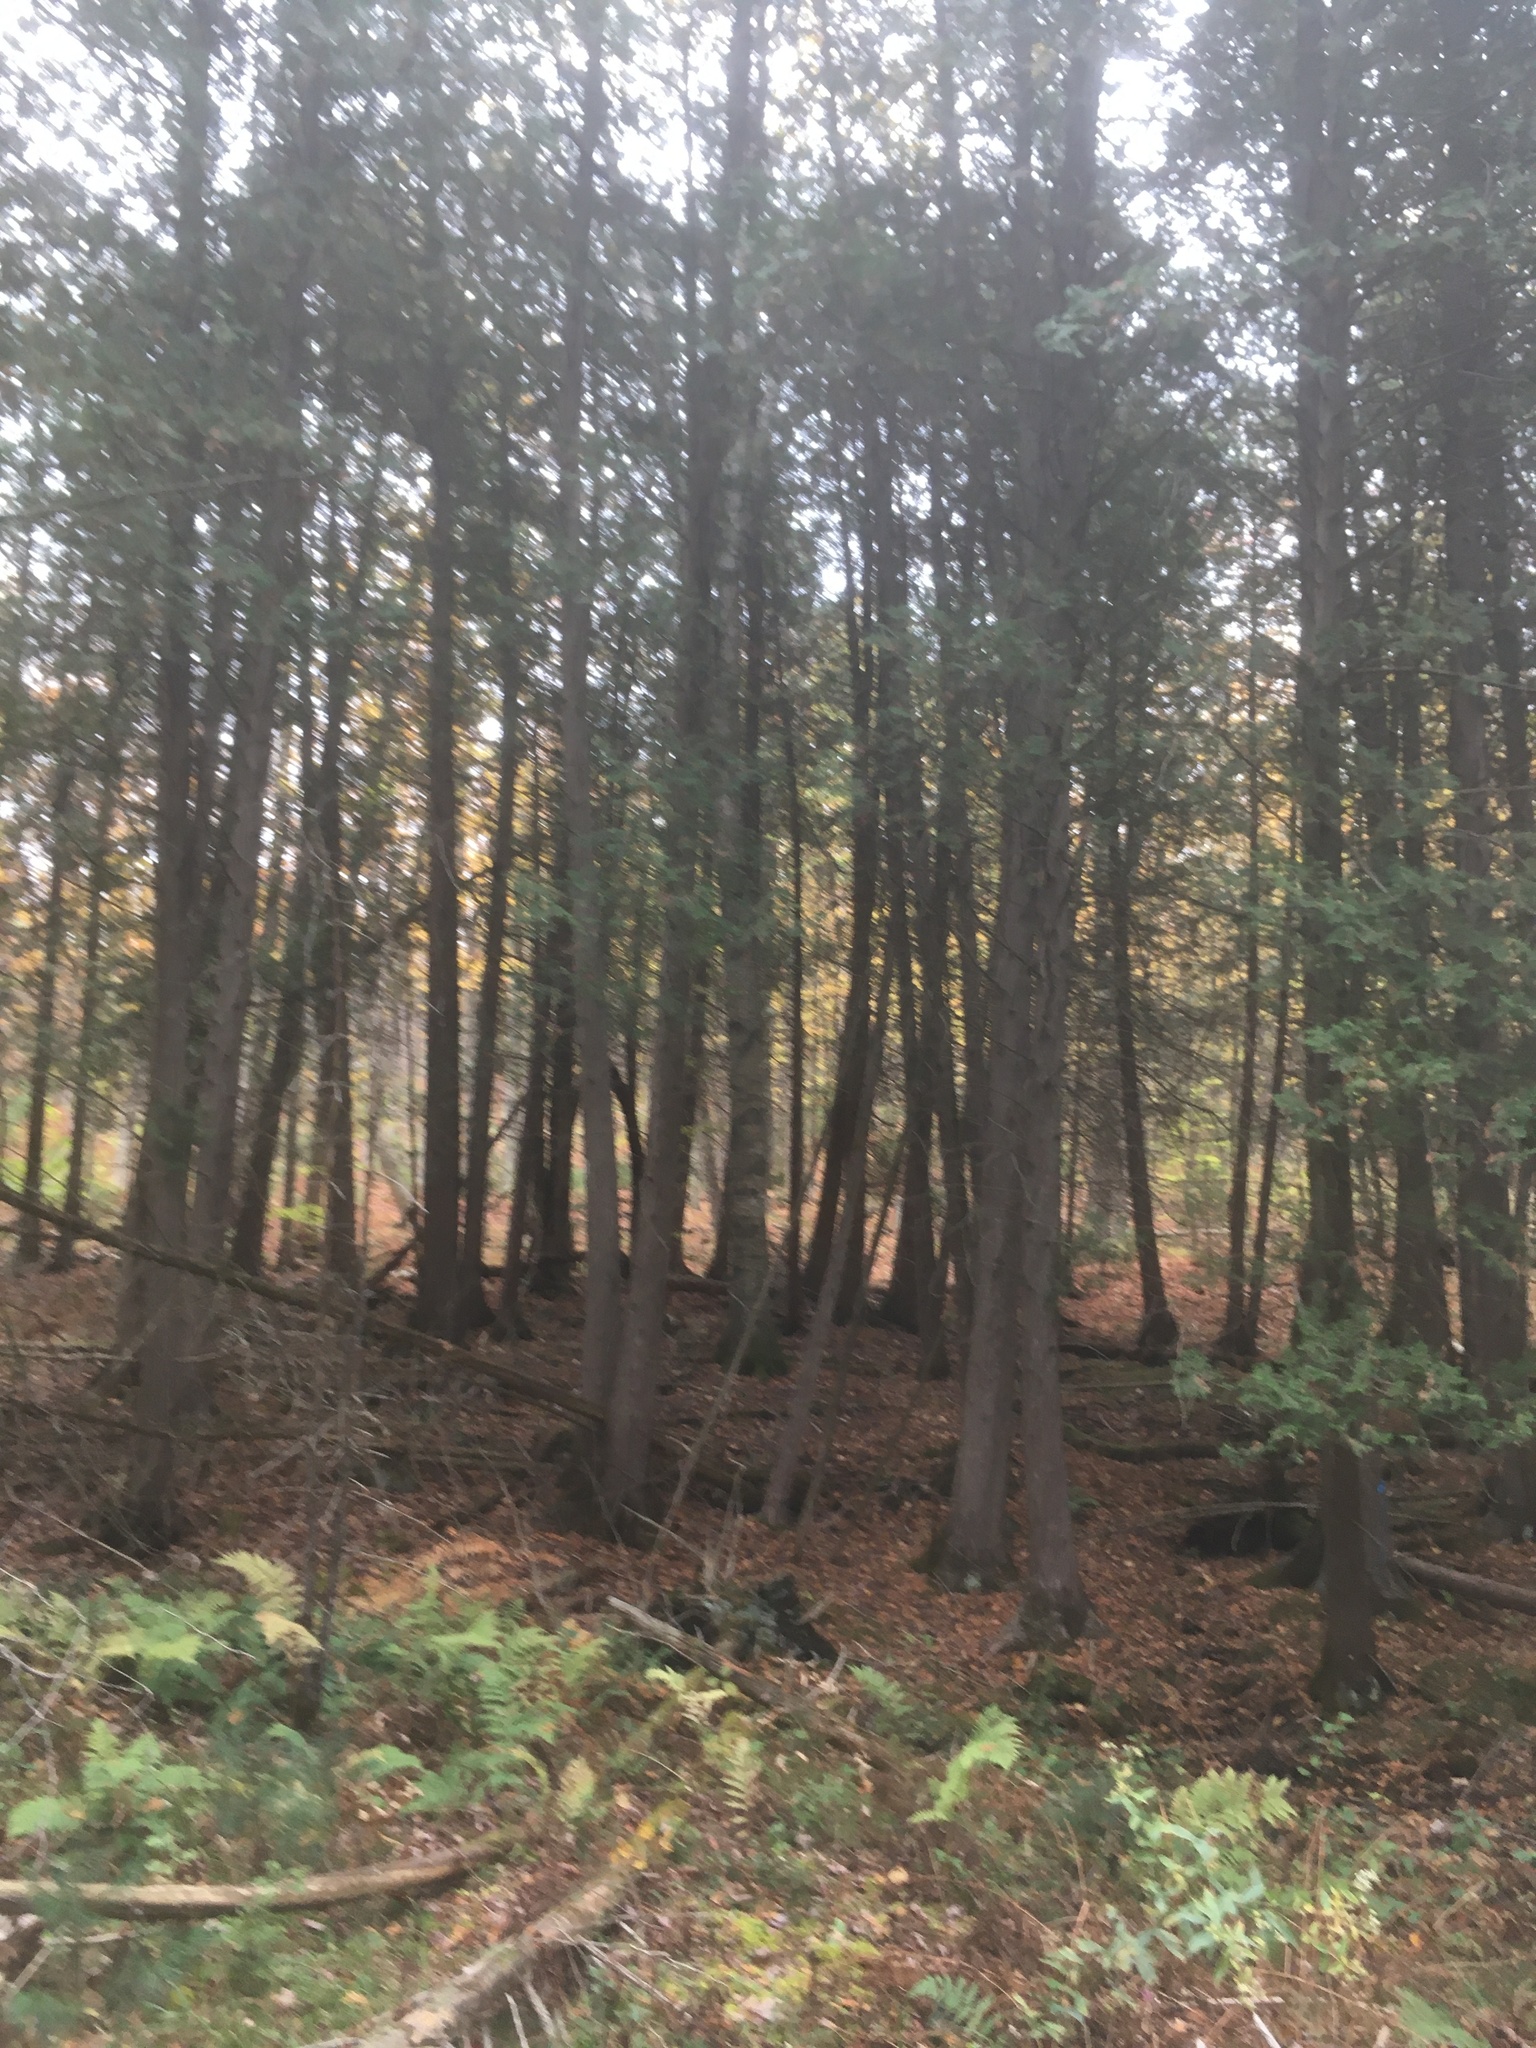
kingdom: Plantae
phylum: Tracheophyta
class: Pinopsida
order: Pinales
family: Cupressaceae
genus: Thuja
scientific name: Thuja occidentalis
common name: Northern white-cedar
